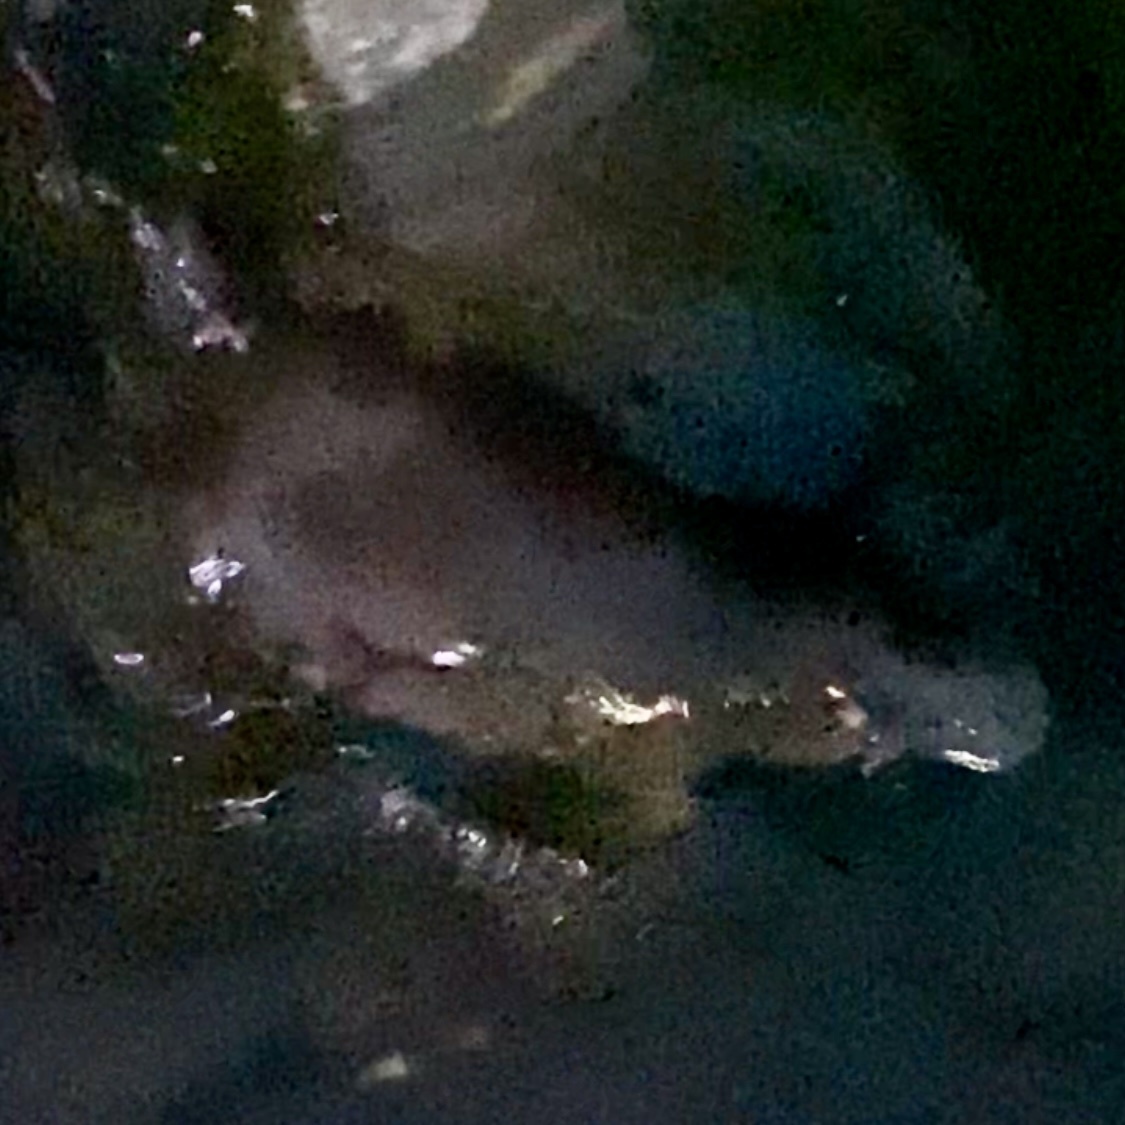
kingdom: Animalia
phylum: Chordata
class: Mammalia
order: Monotremata
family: Ornithorhynchidae
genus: Ornithorhynchus
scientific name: Ornithorhynchus anatinus
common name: Platypus
